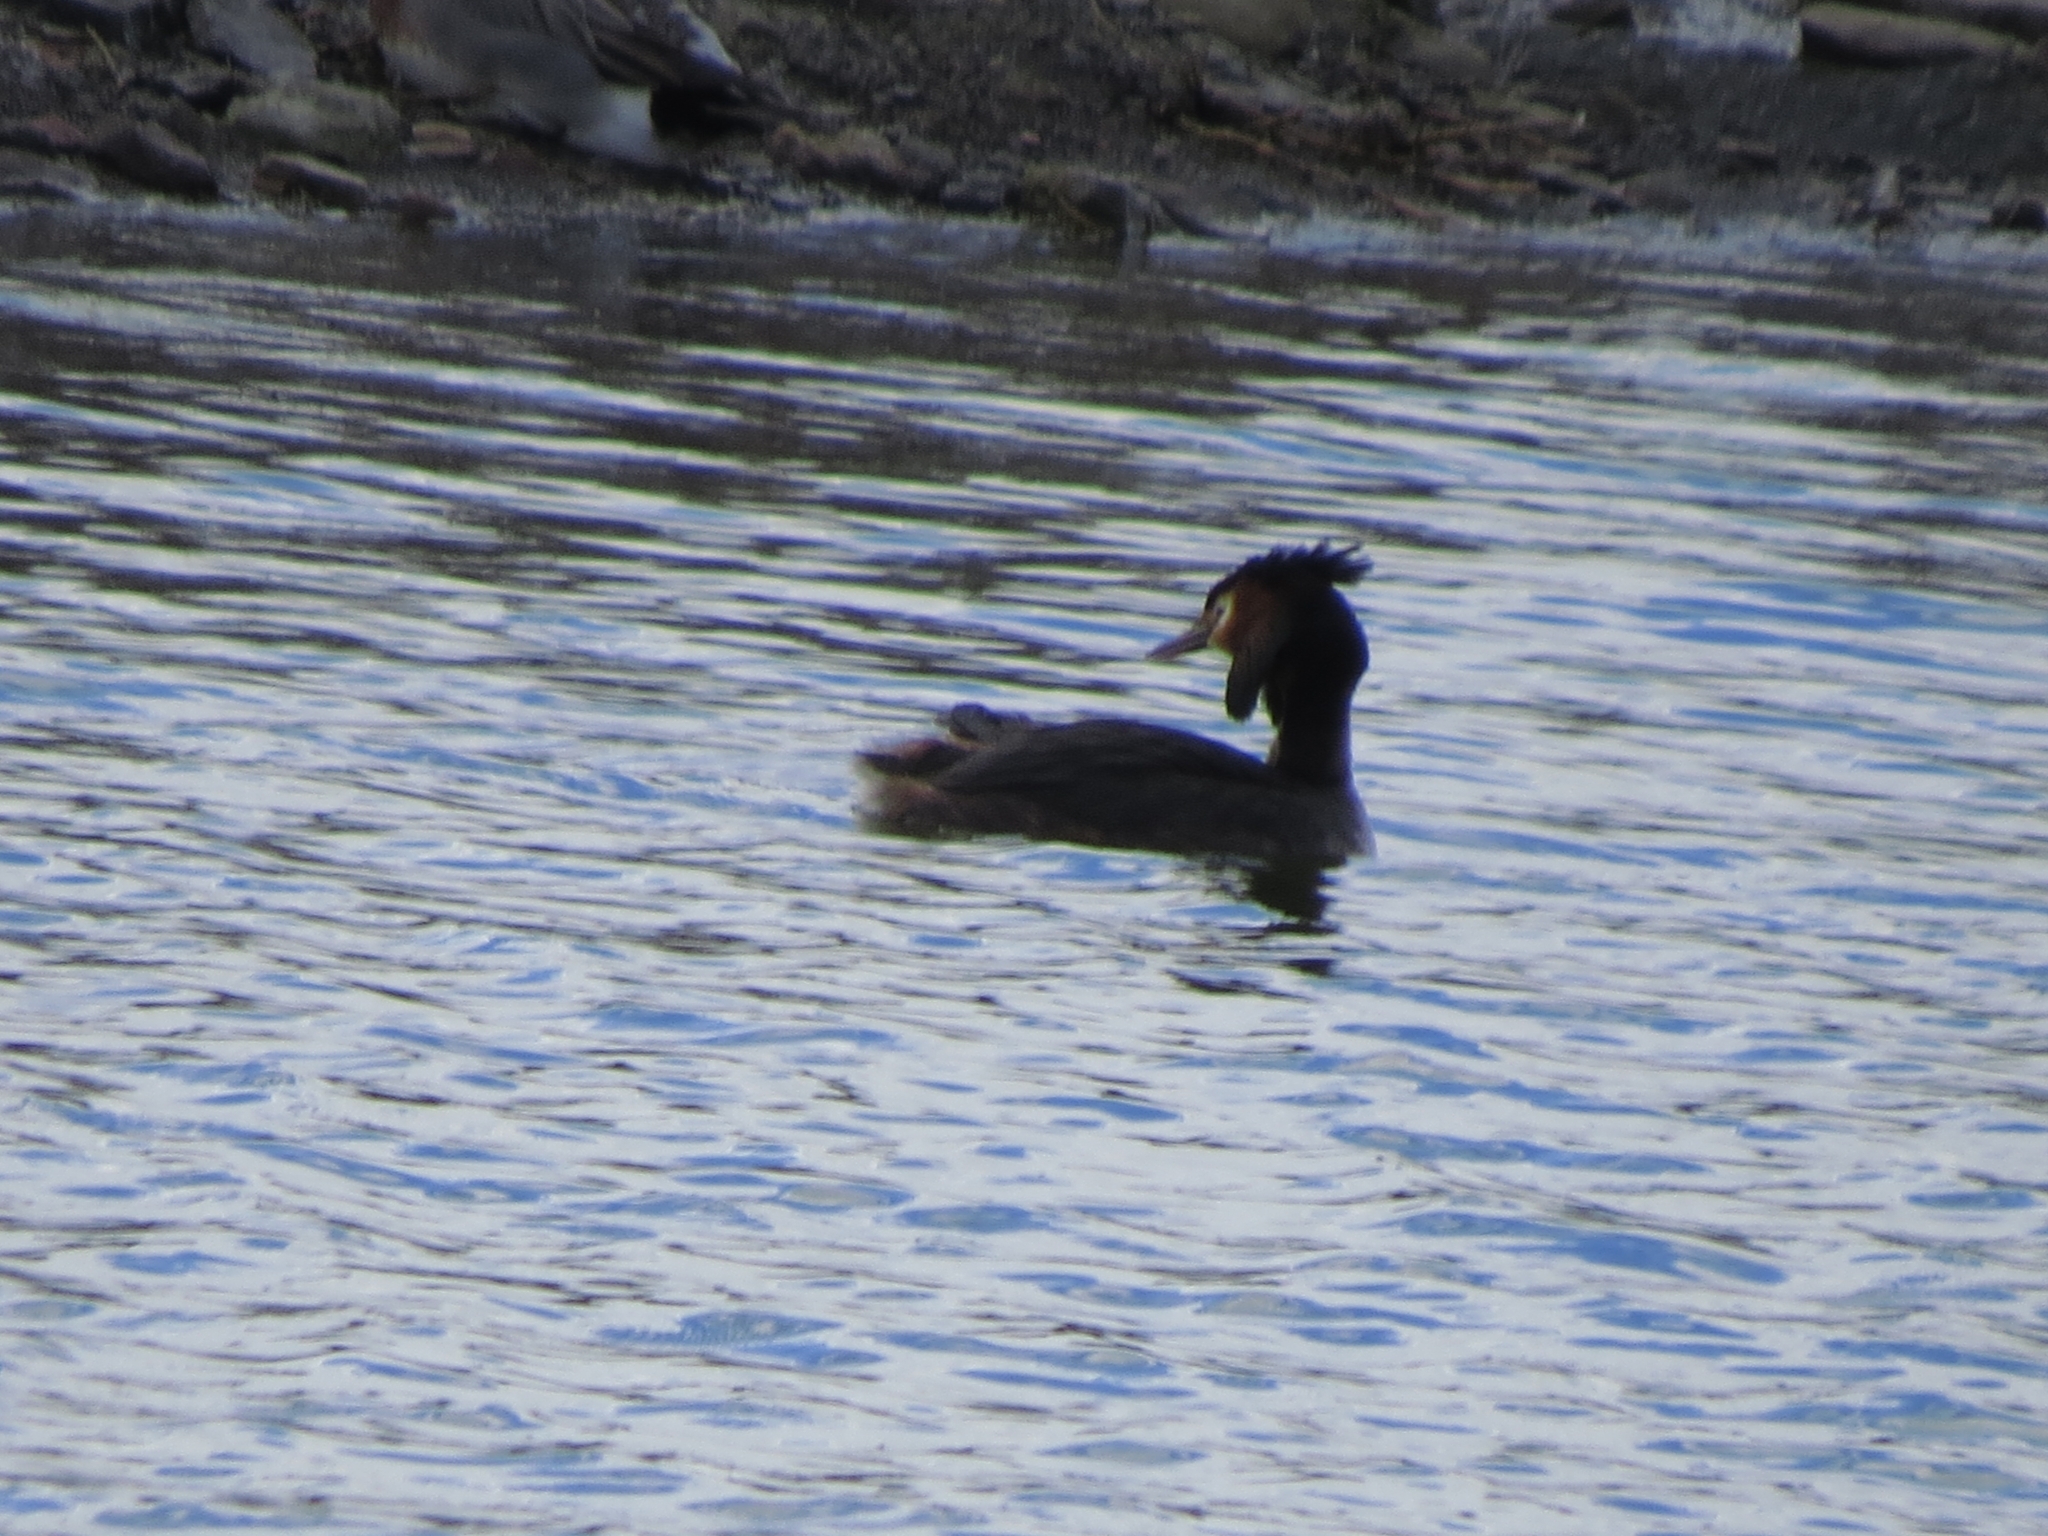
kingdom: Animalia
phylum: Chordata
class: Aves
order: Podicipediformes
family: Podicipedidae
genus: Podiceps
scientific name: Podiceps cristatus
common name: Great crested grebe
